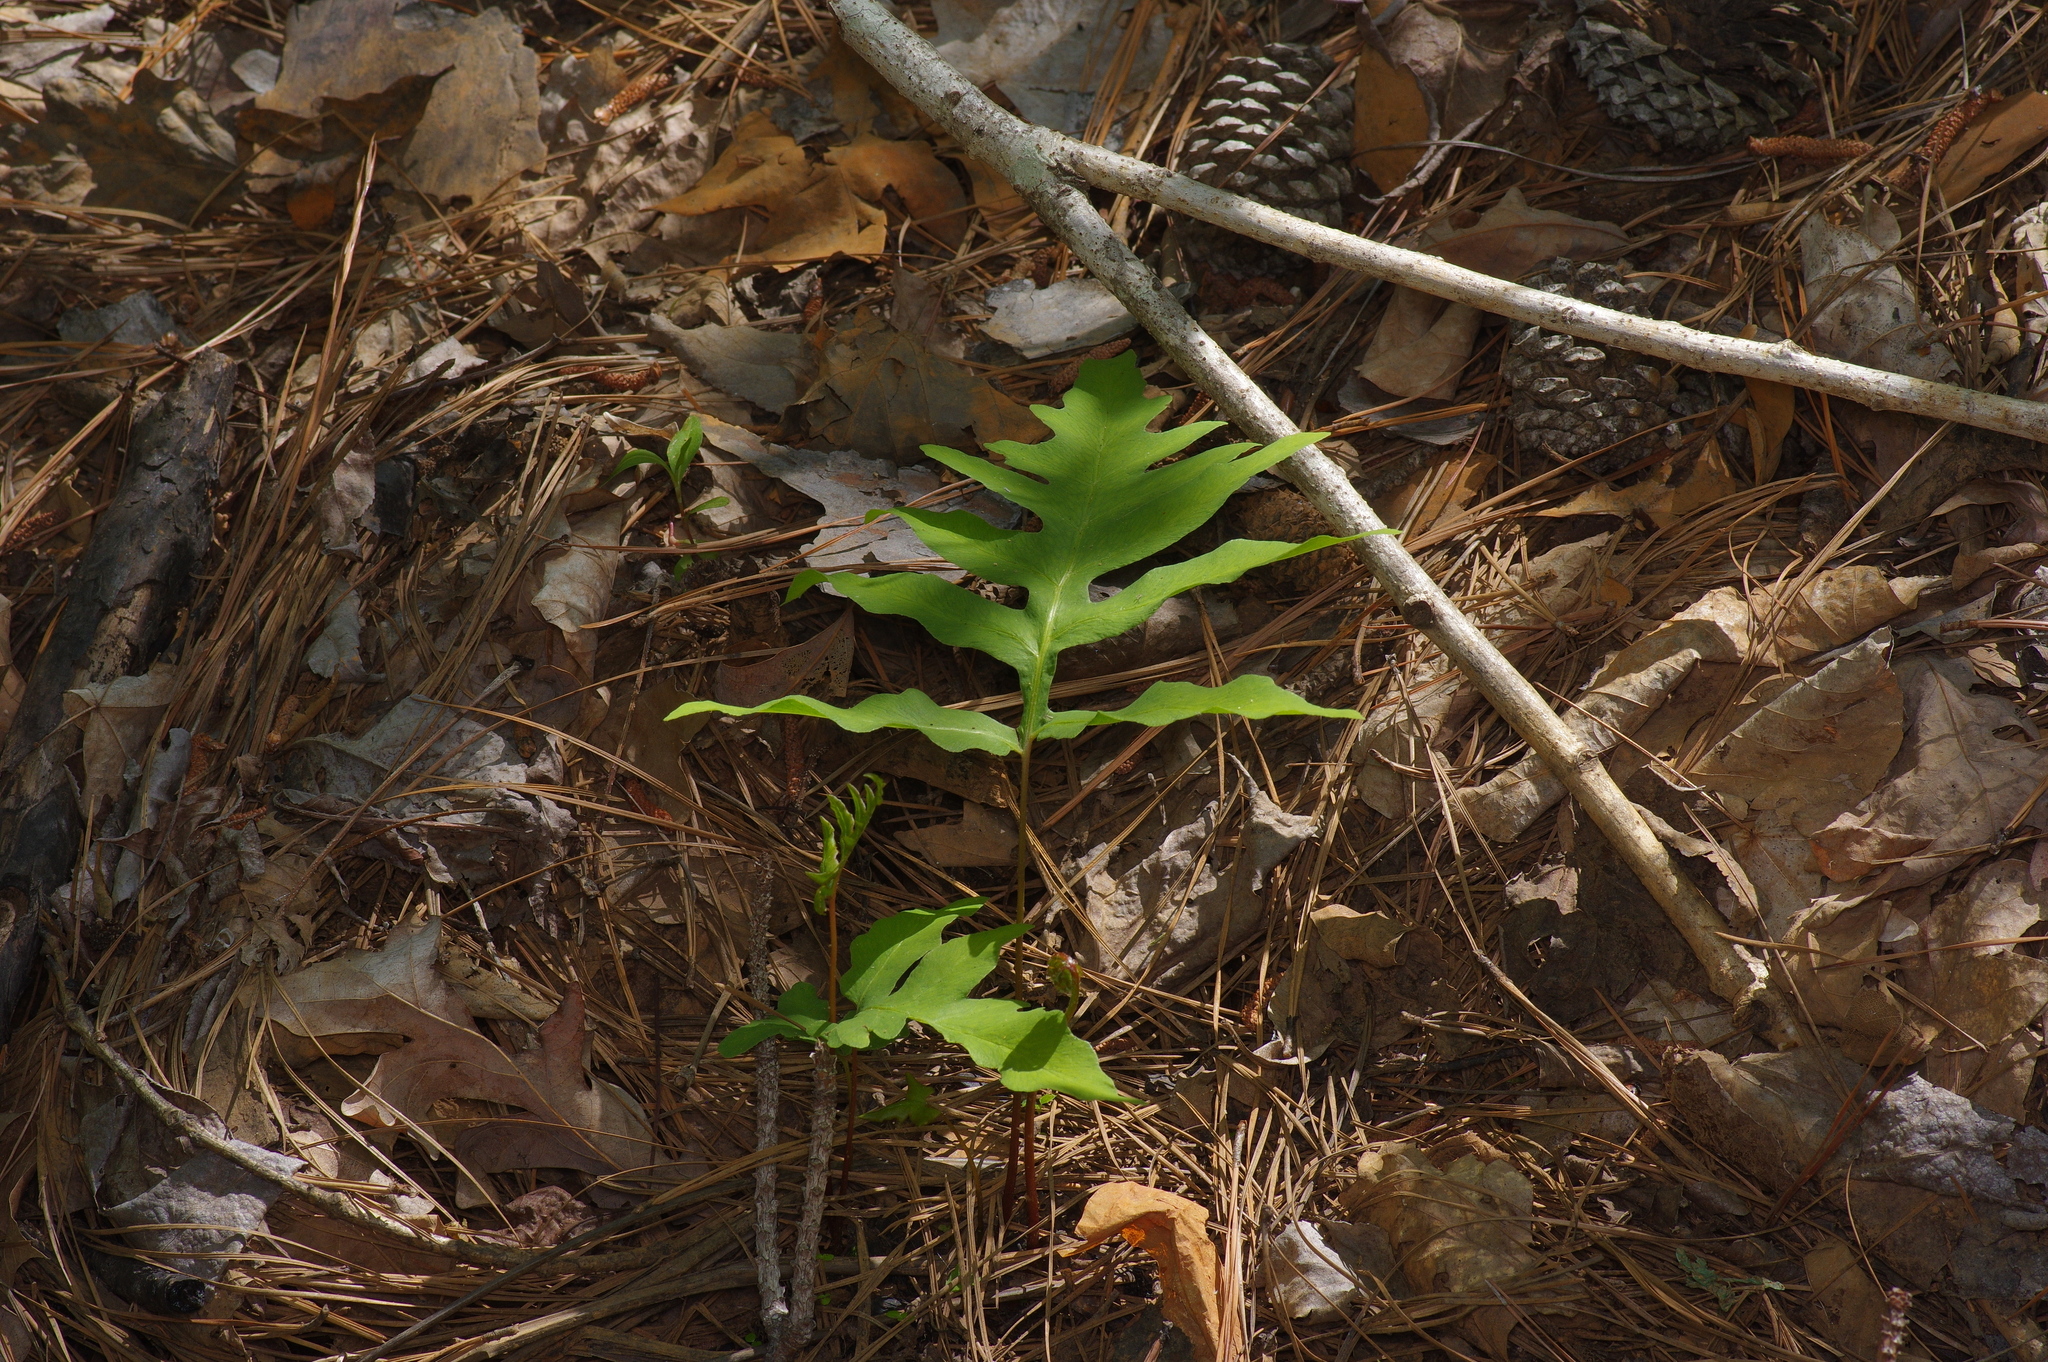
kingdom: Plantae
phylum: Tracheophyta
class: Polypodiopsida
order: Polypodiales
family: Blechnaceae
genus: Lorinseria
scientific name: Lorinseria areolata
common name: Dwarf chain fern
